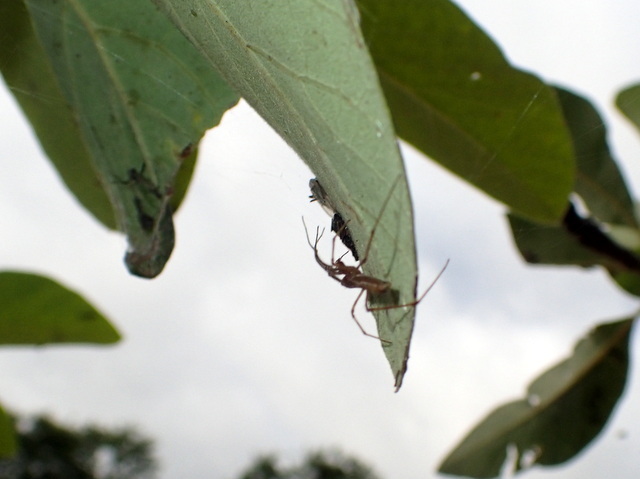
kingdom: Animalia
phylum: Arthropoda
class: Arachnida
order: Araneae
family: Tetragnathidae
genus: Tetragnatha
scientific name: Tetragnatha
